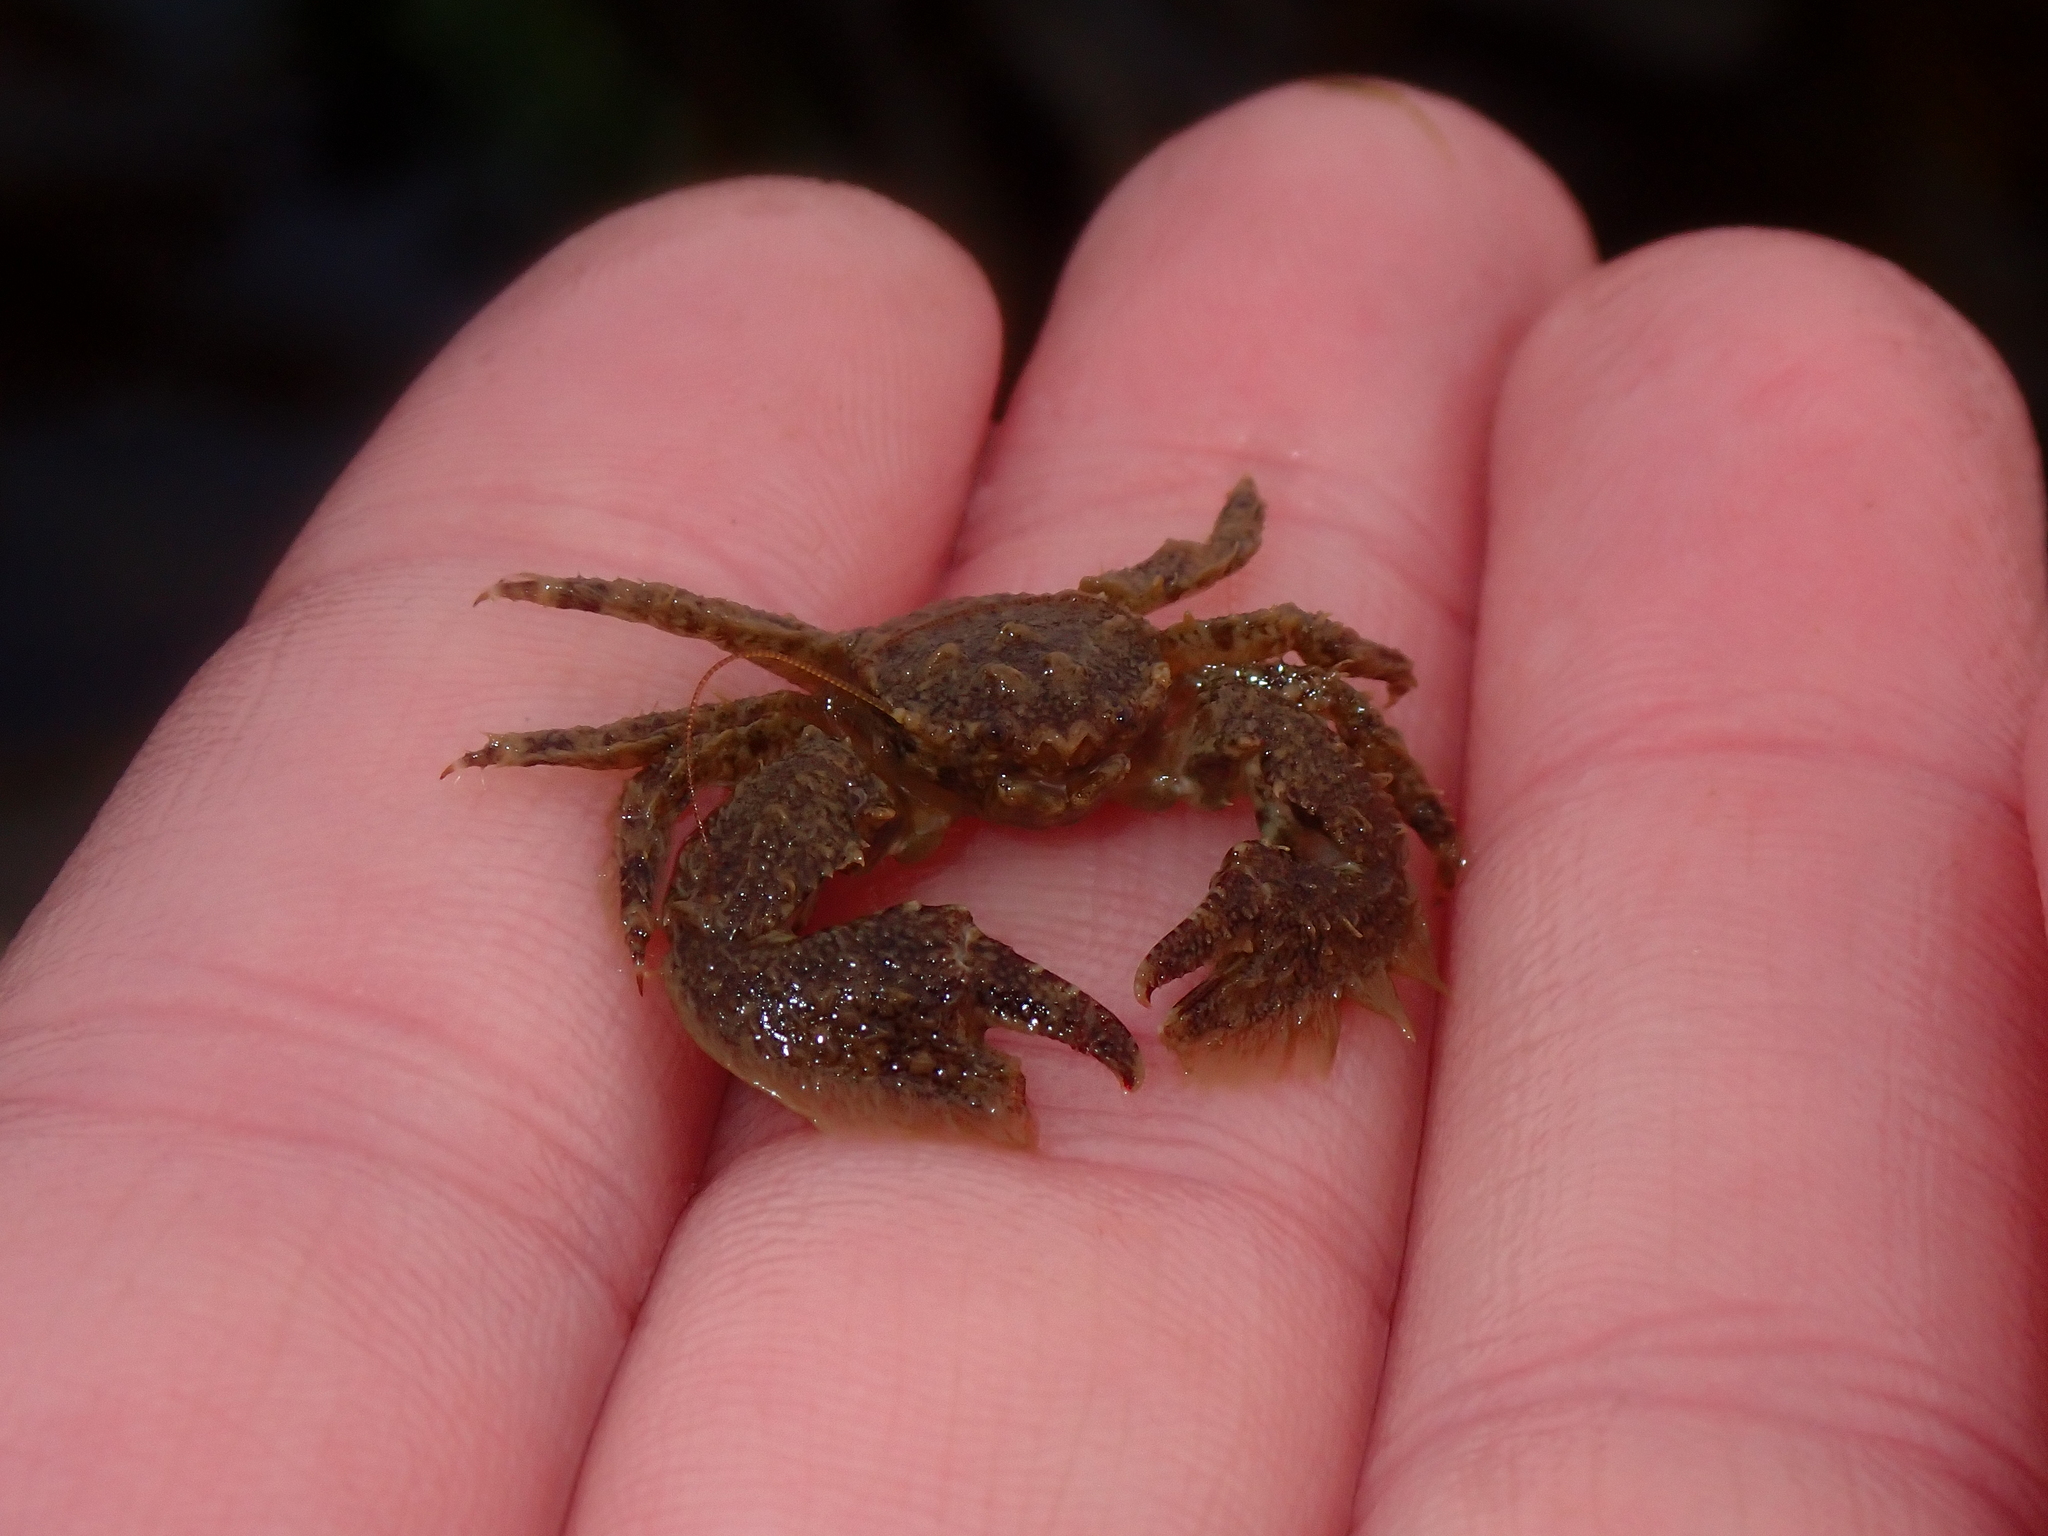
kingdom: Animalia
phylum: Arthropoda
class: Malacostraca
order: Decapoda
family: Porcellanidae
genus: Porcellana
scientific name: Porcellana platycheles
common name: Porcelain crab
